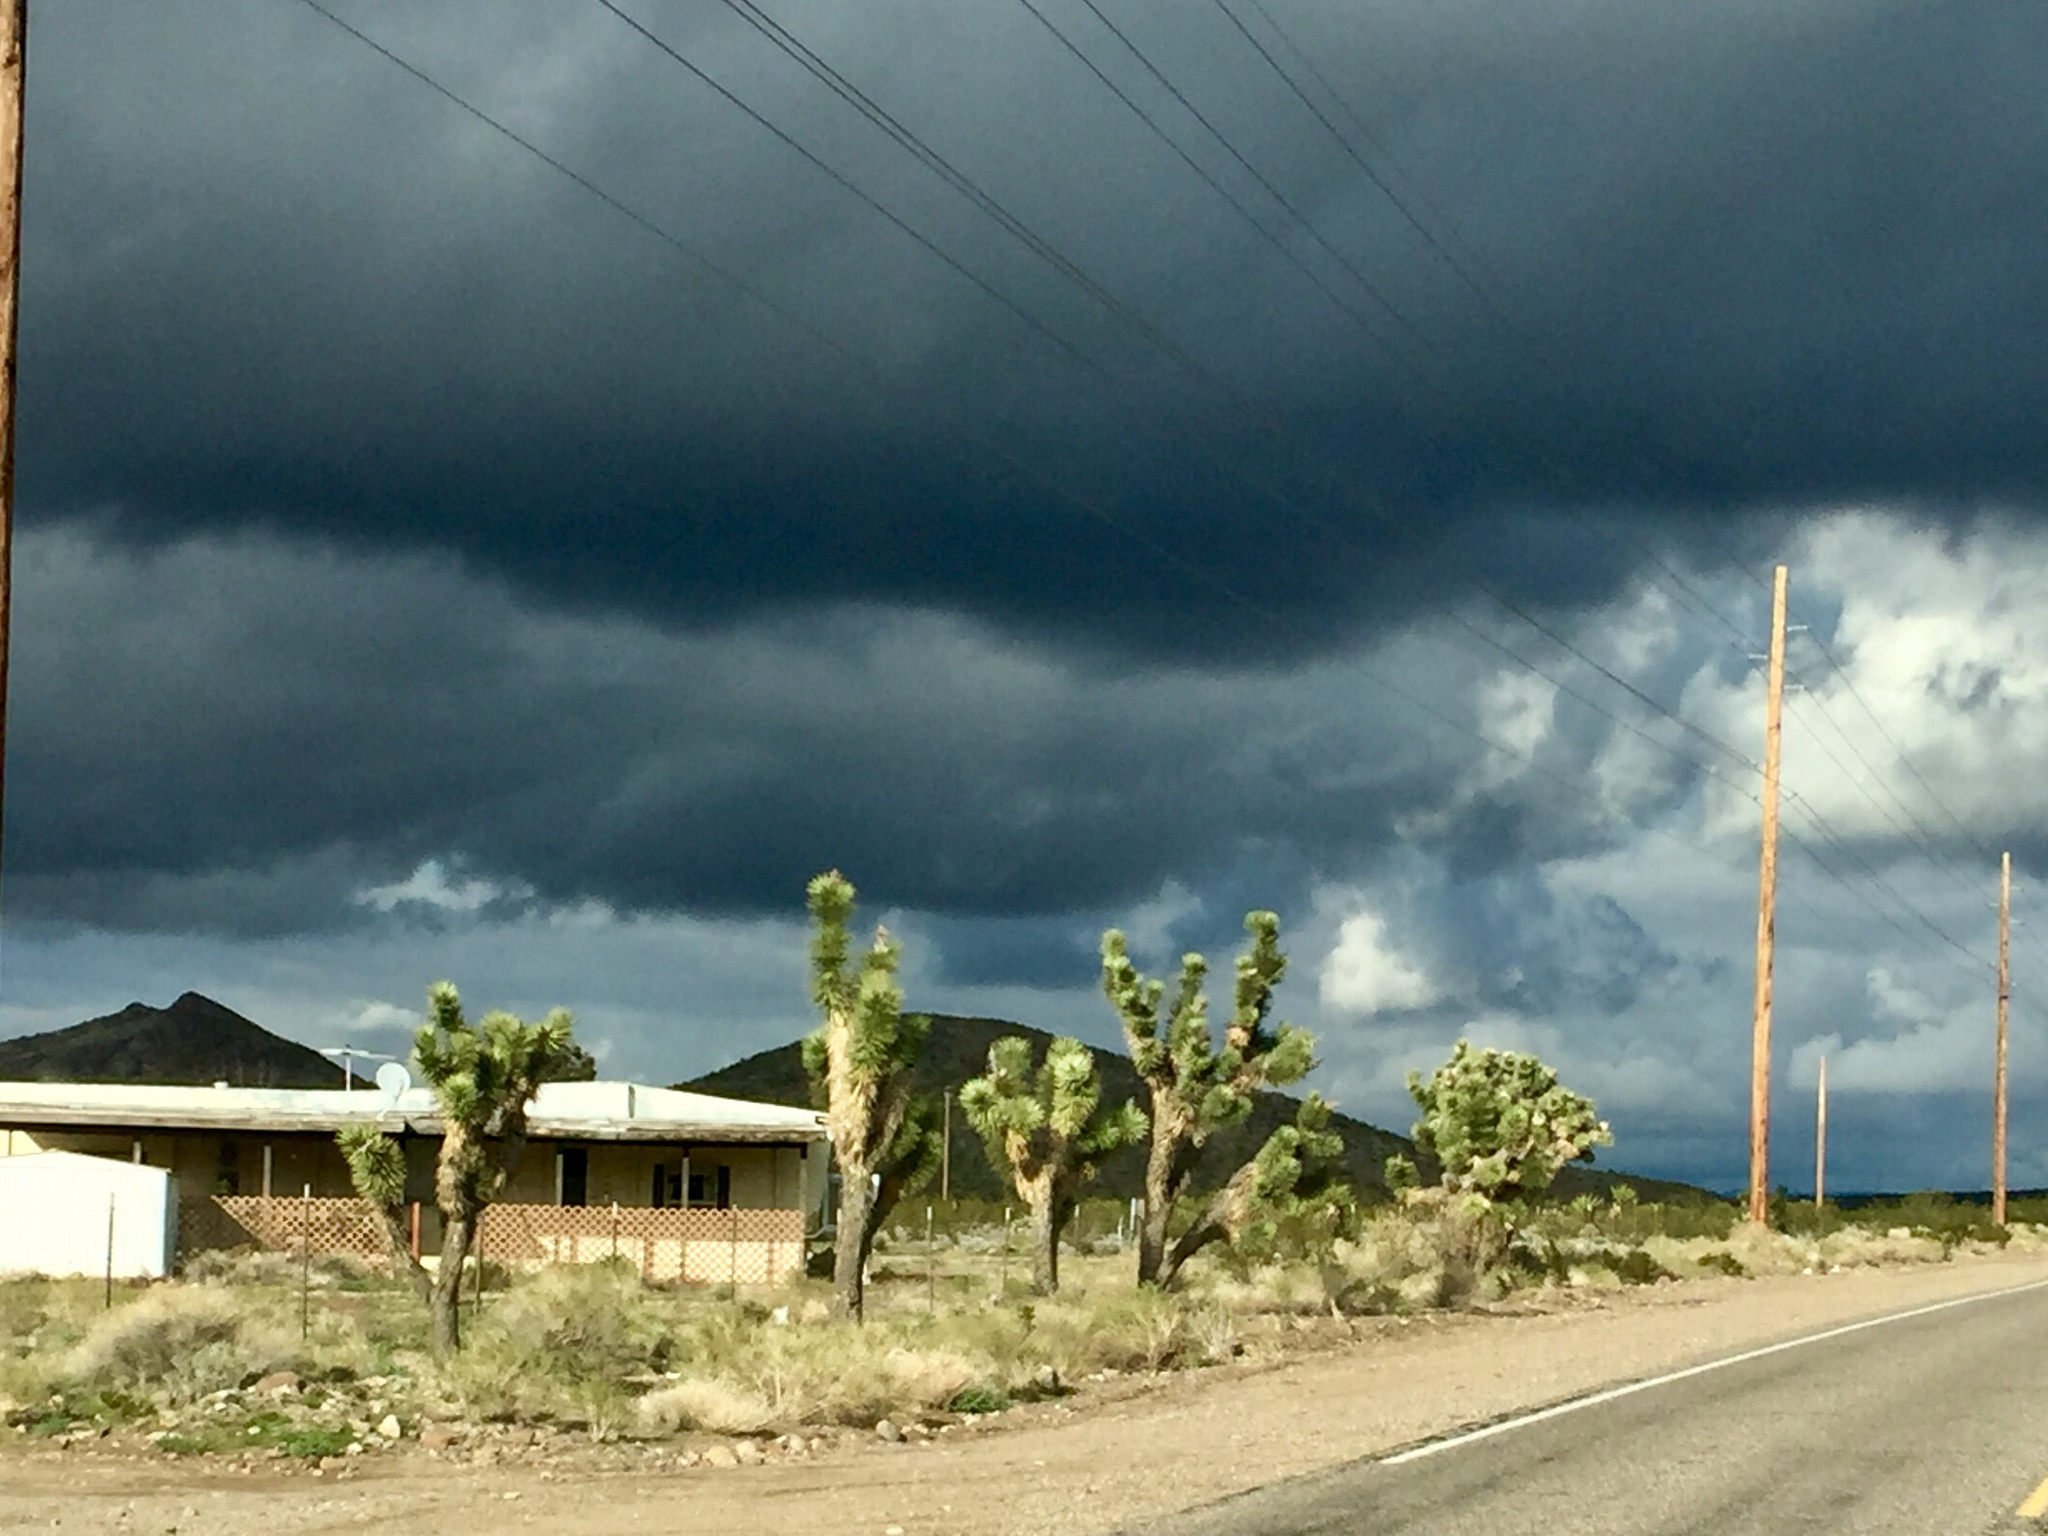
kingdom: Plantae
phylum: Tracheophyta
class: Liliopsida
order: Asparagales
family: Asparagaceae
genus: Yucca
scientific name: Yucca brevifolia
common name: Joshua tree
